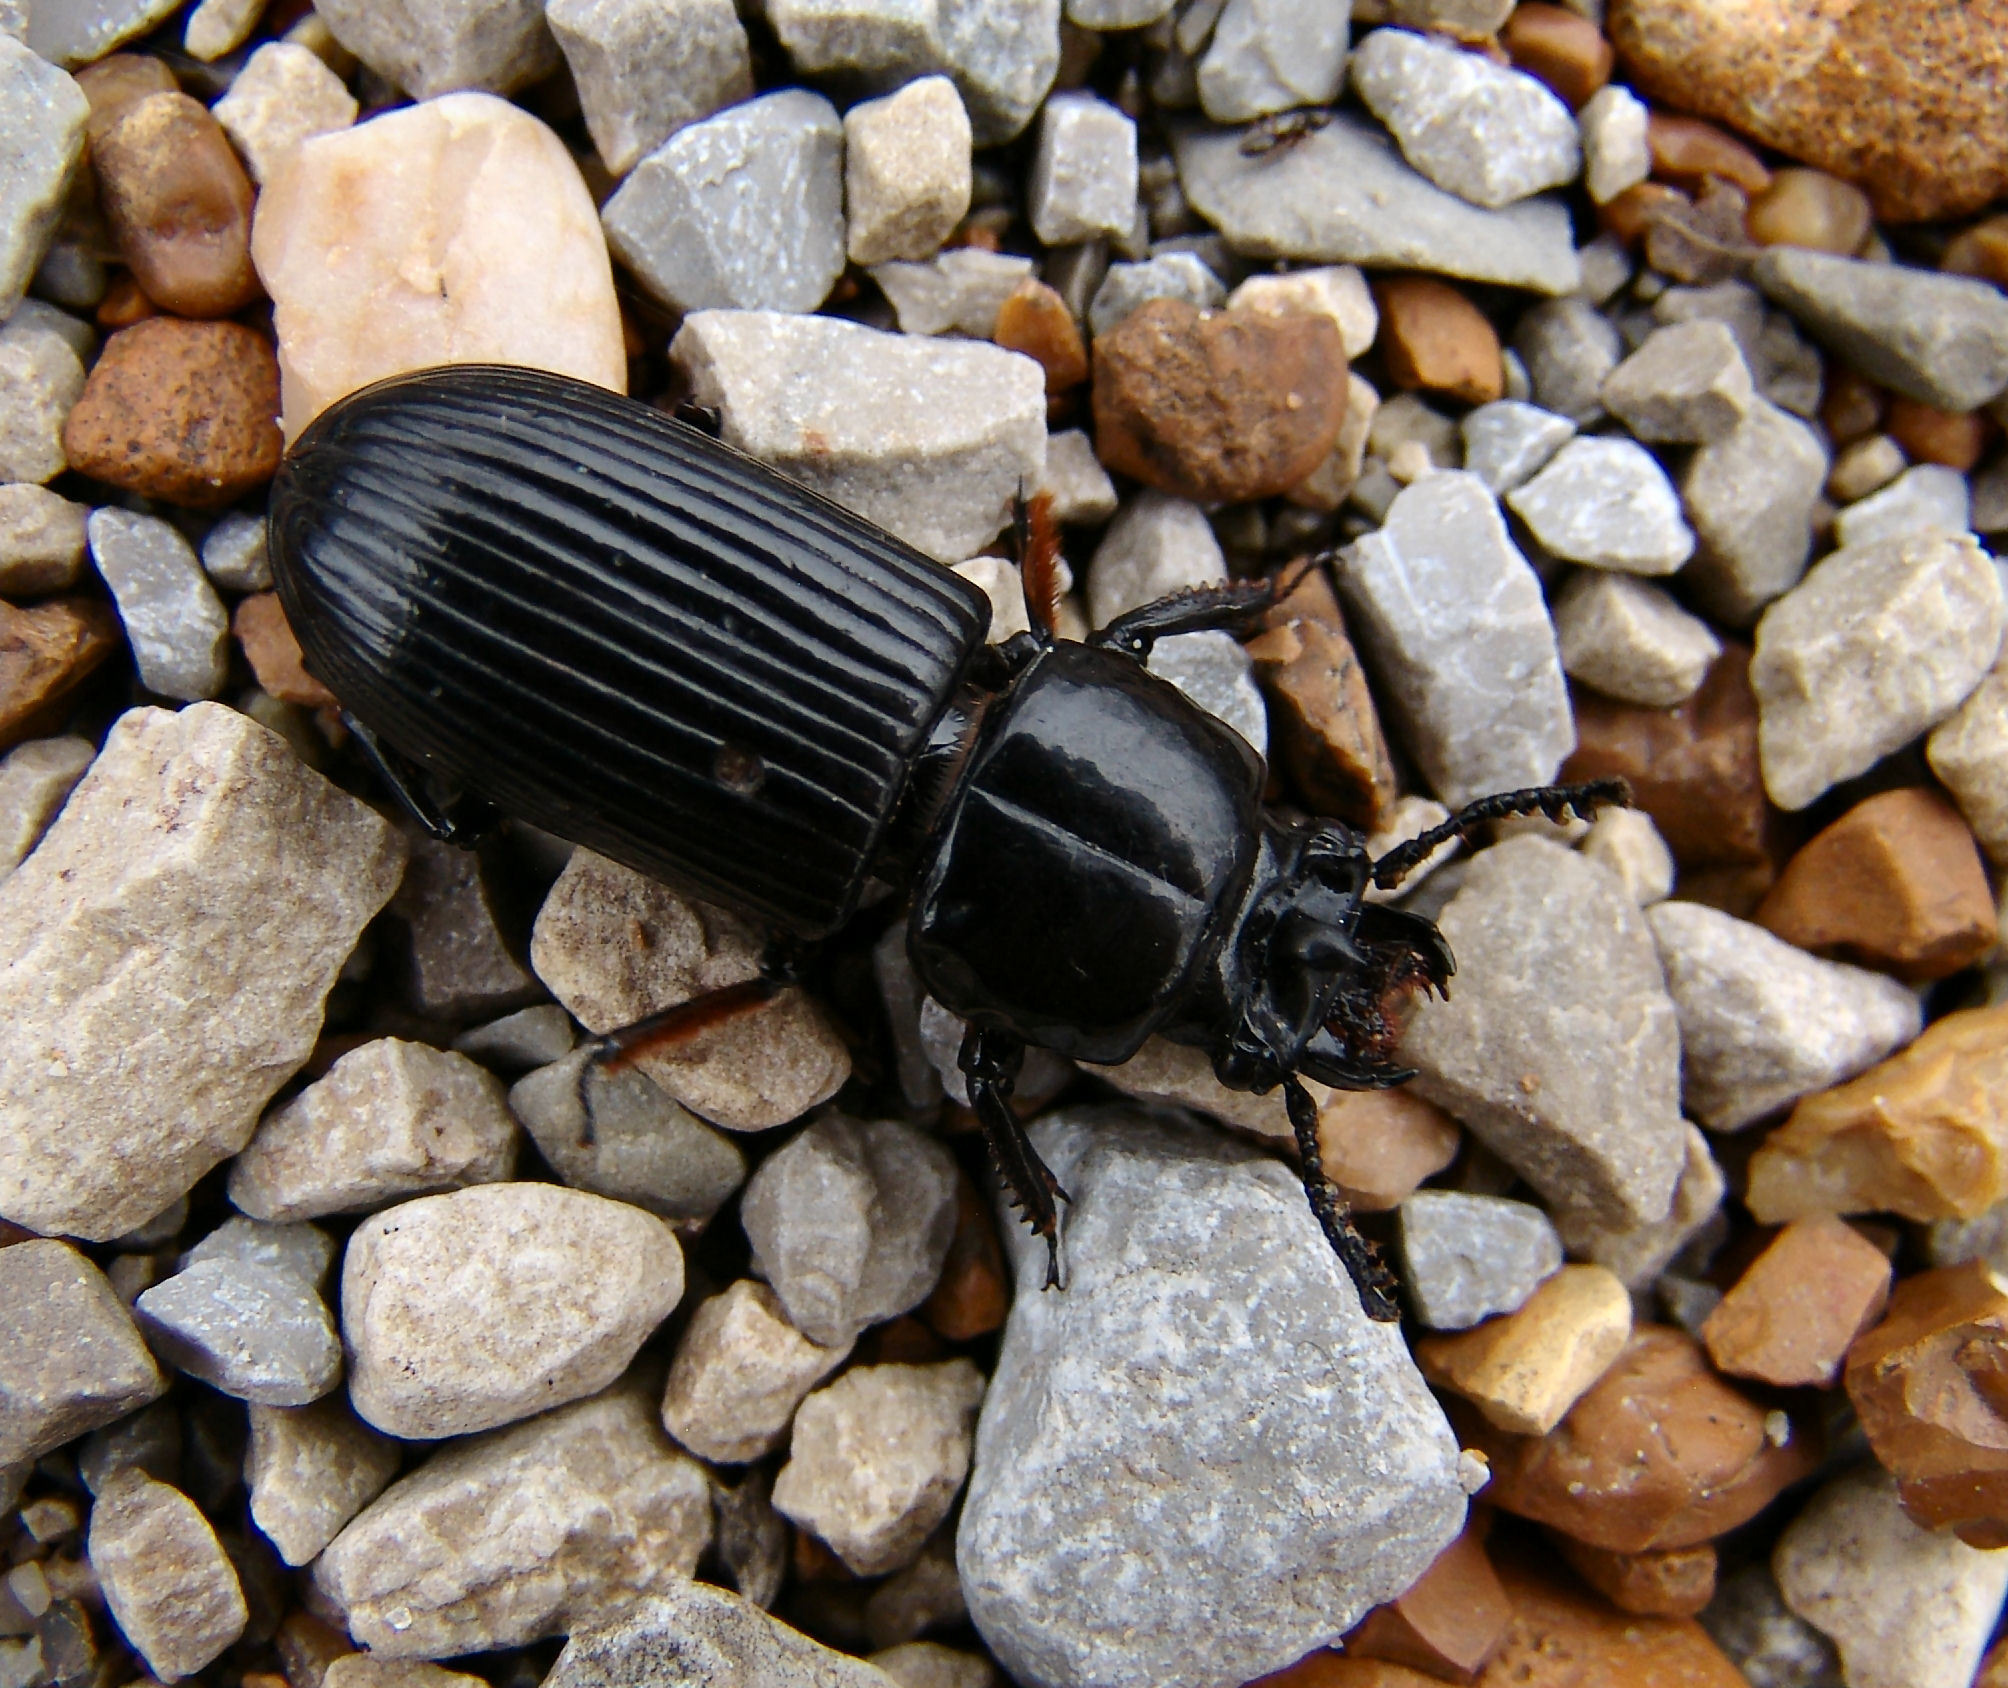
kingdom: Animalia
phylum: Arthropoda
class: Insecta
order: Coleoptera
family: Passalidae
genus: Odontotaenius
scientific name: Odontotaenius disjunctus
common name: Patent leather beetle
